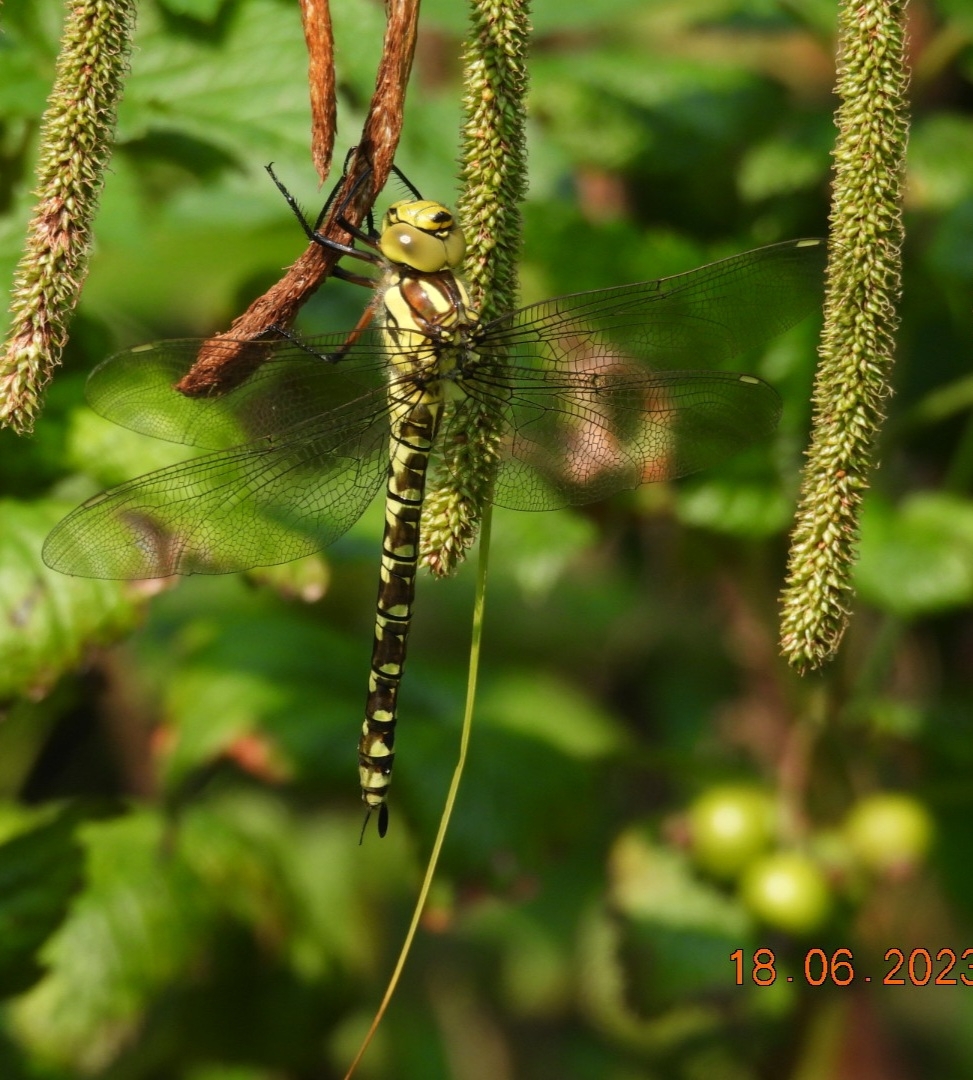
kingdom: Animalia
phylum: Arthropoda
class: Insecta
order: Odonata
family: Aeshnidae
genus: Aeshna
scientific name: Aeshna cyanea
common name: Southern hawker
